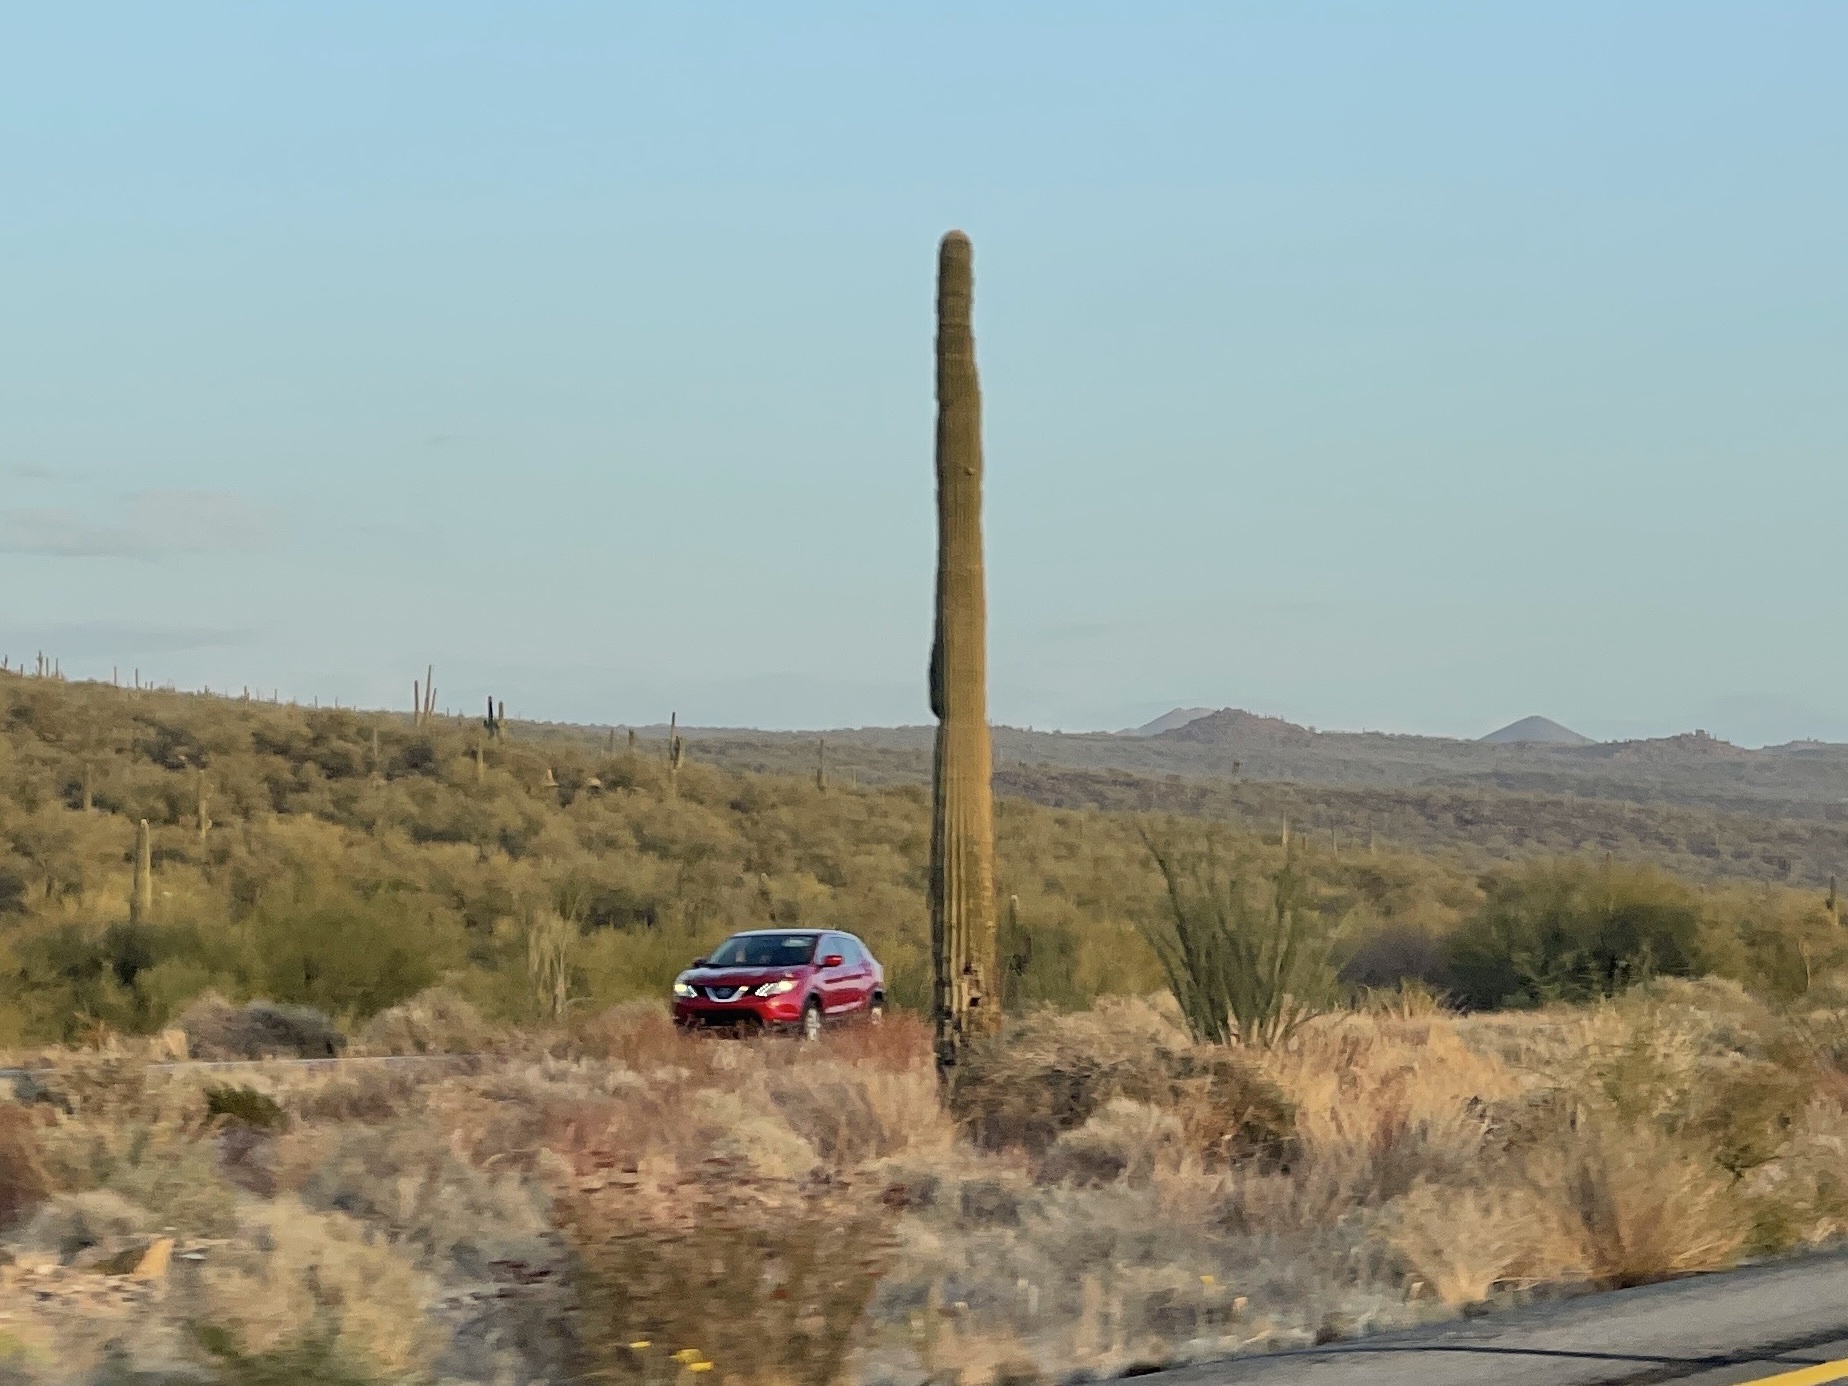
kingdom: Plantae
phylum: Tracheophyta
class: Magnoliopsida
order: Caryophyllales
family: Cactaceae
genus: Carnegiea
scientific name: Carnegiea gigantea
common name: Saguaro
